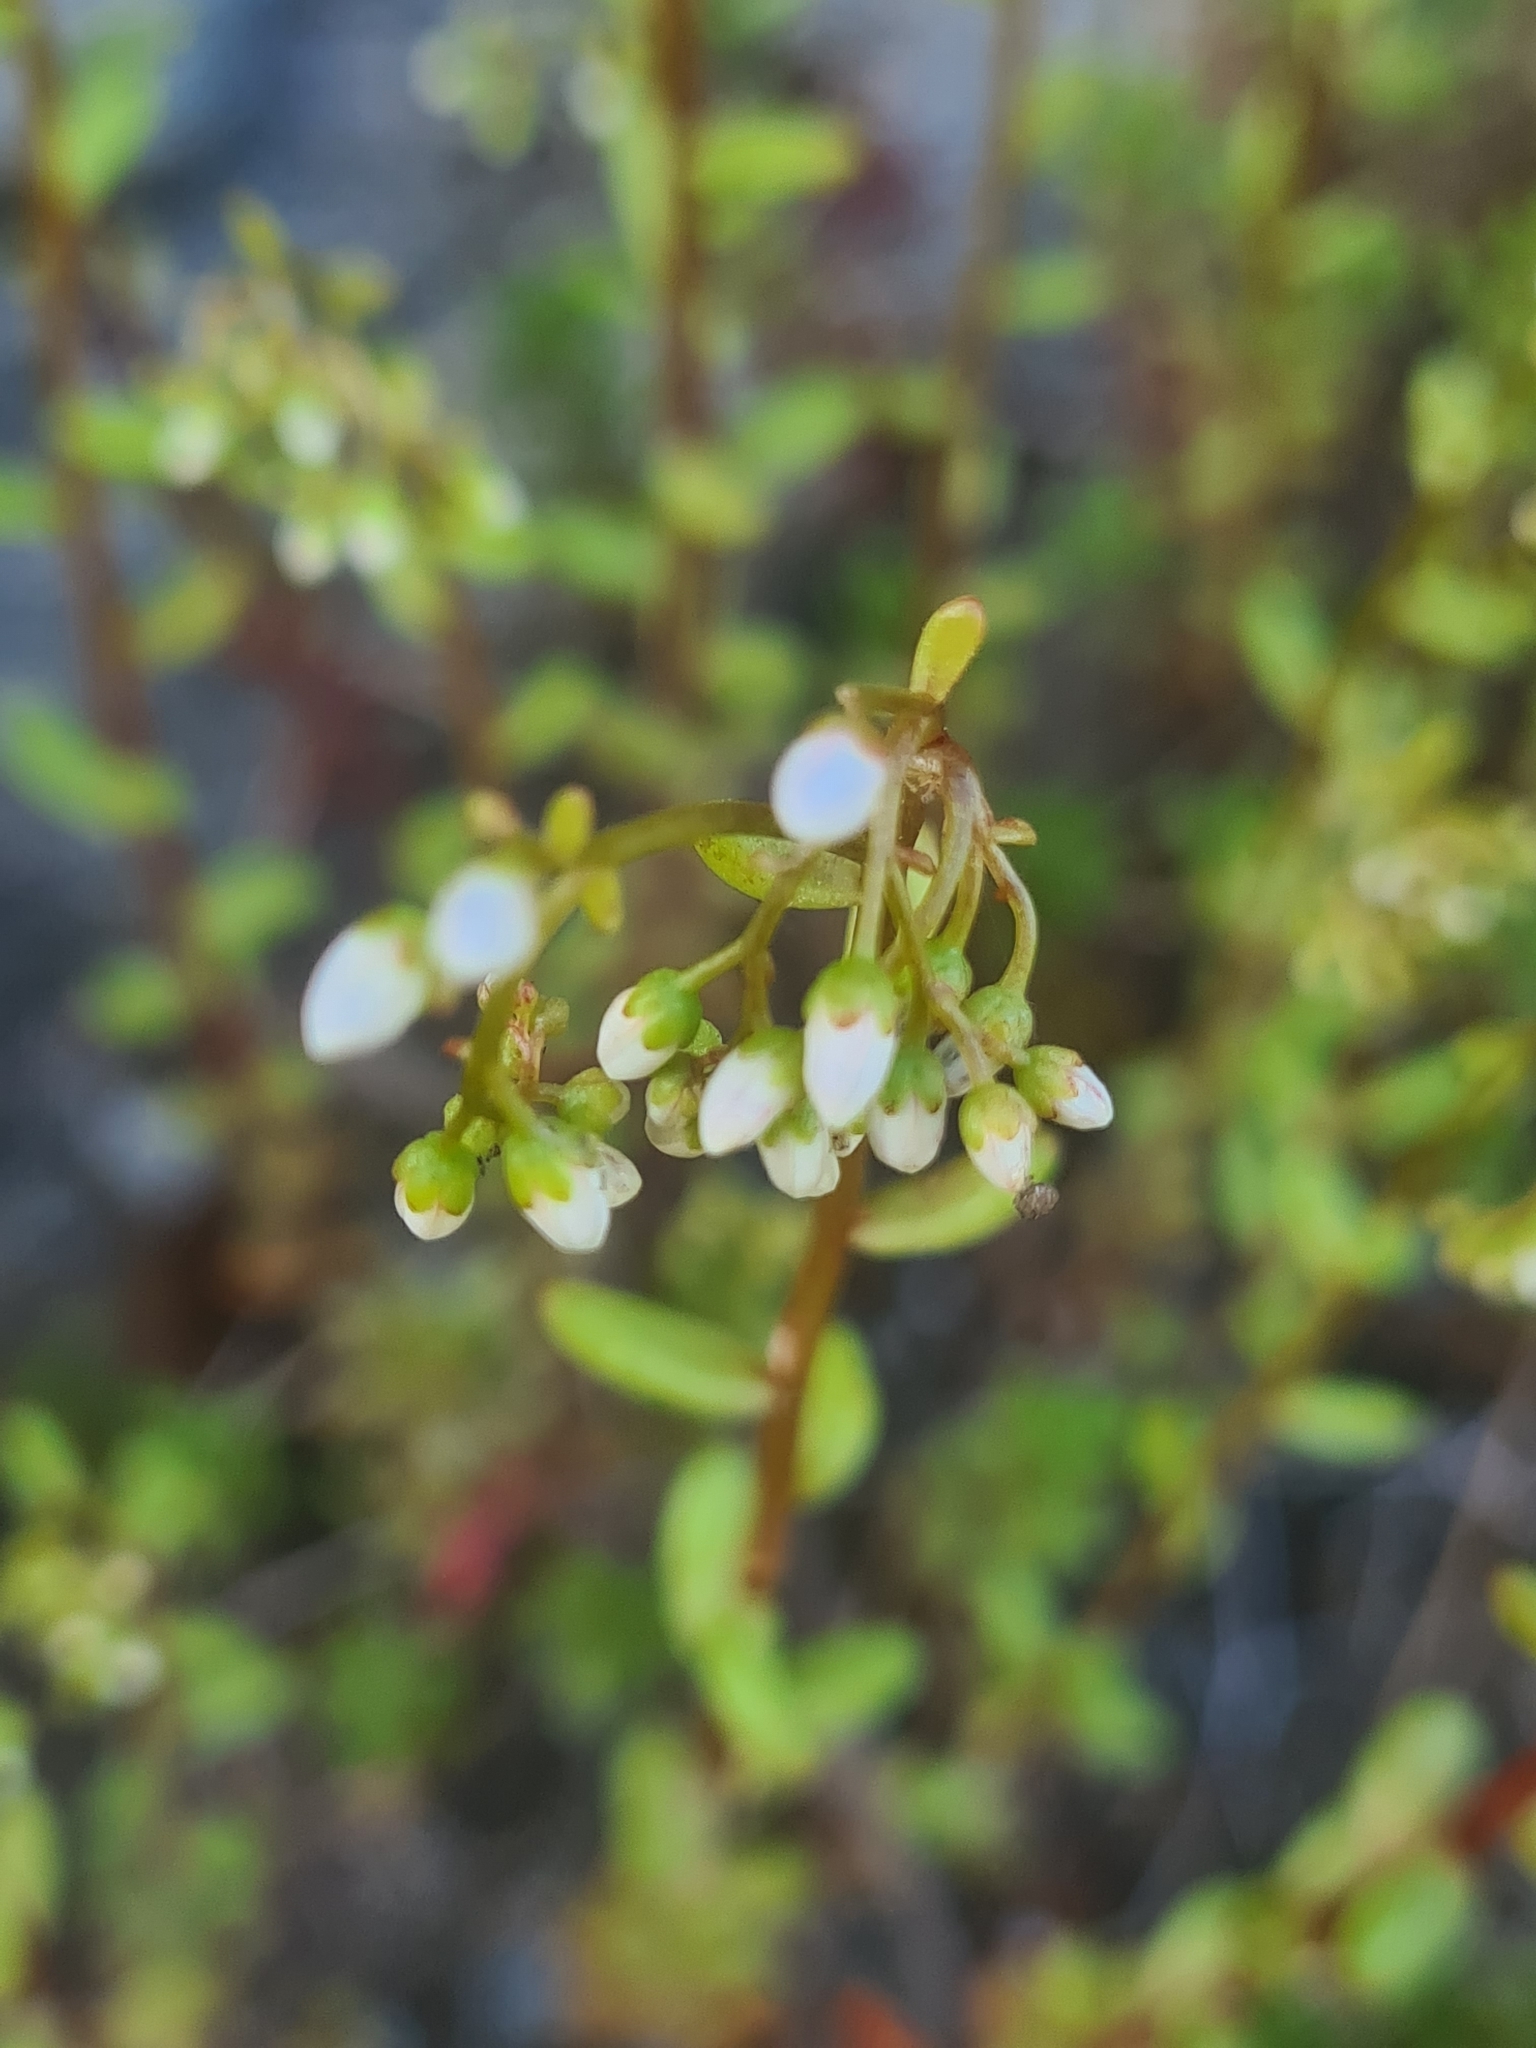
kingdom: Plantae
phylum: Tracheophyta
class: Magnoliopsida
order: Saxifragales
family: Crassulaceae
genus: Sedum
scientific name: Sedum album
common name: White stonecrop
